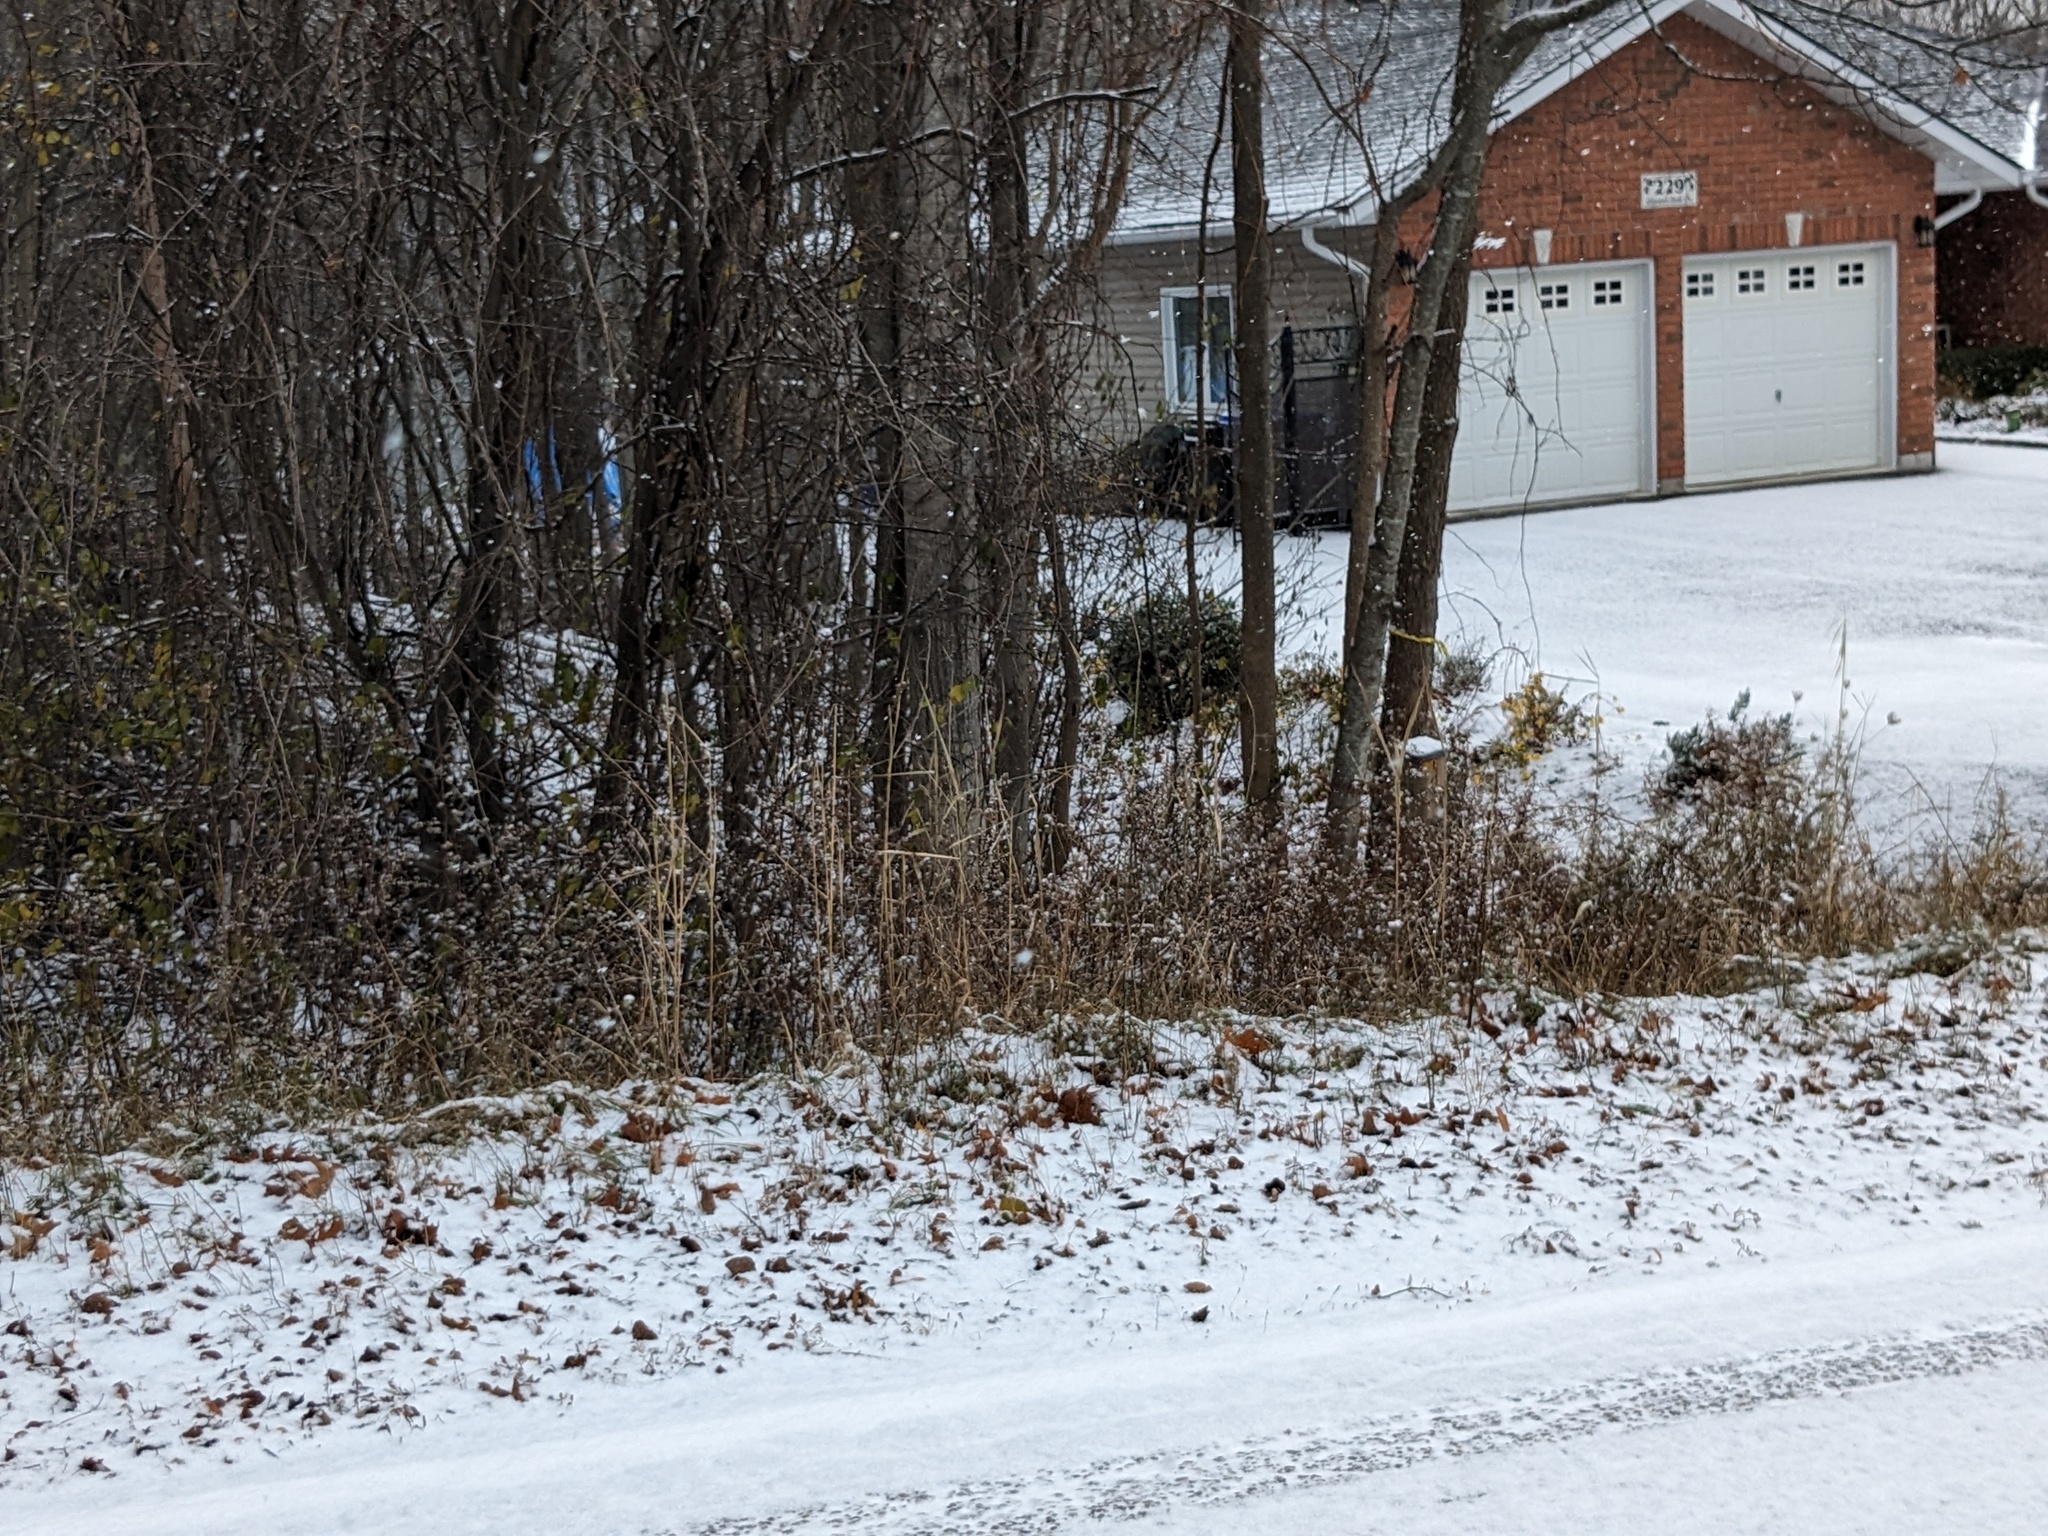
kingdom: Plantae
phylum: Tracheophyta
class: Liliopsida
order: Poales
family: Poaceae
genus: Phragmites
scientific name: Phragmites australis
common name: Common reed
